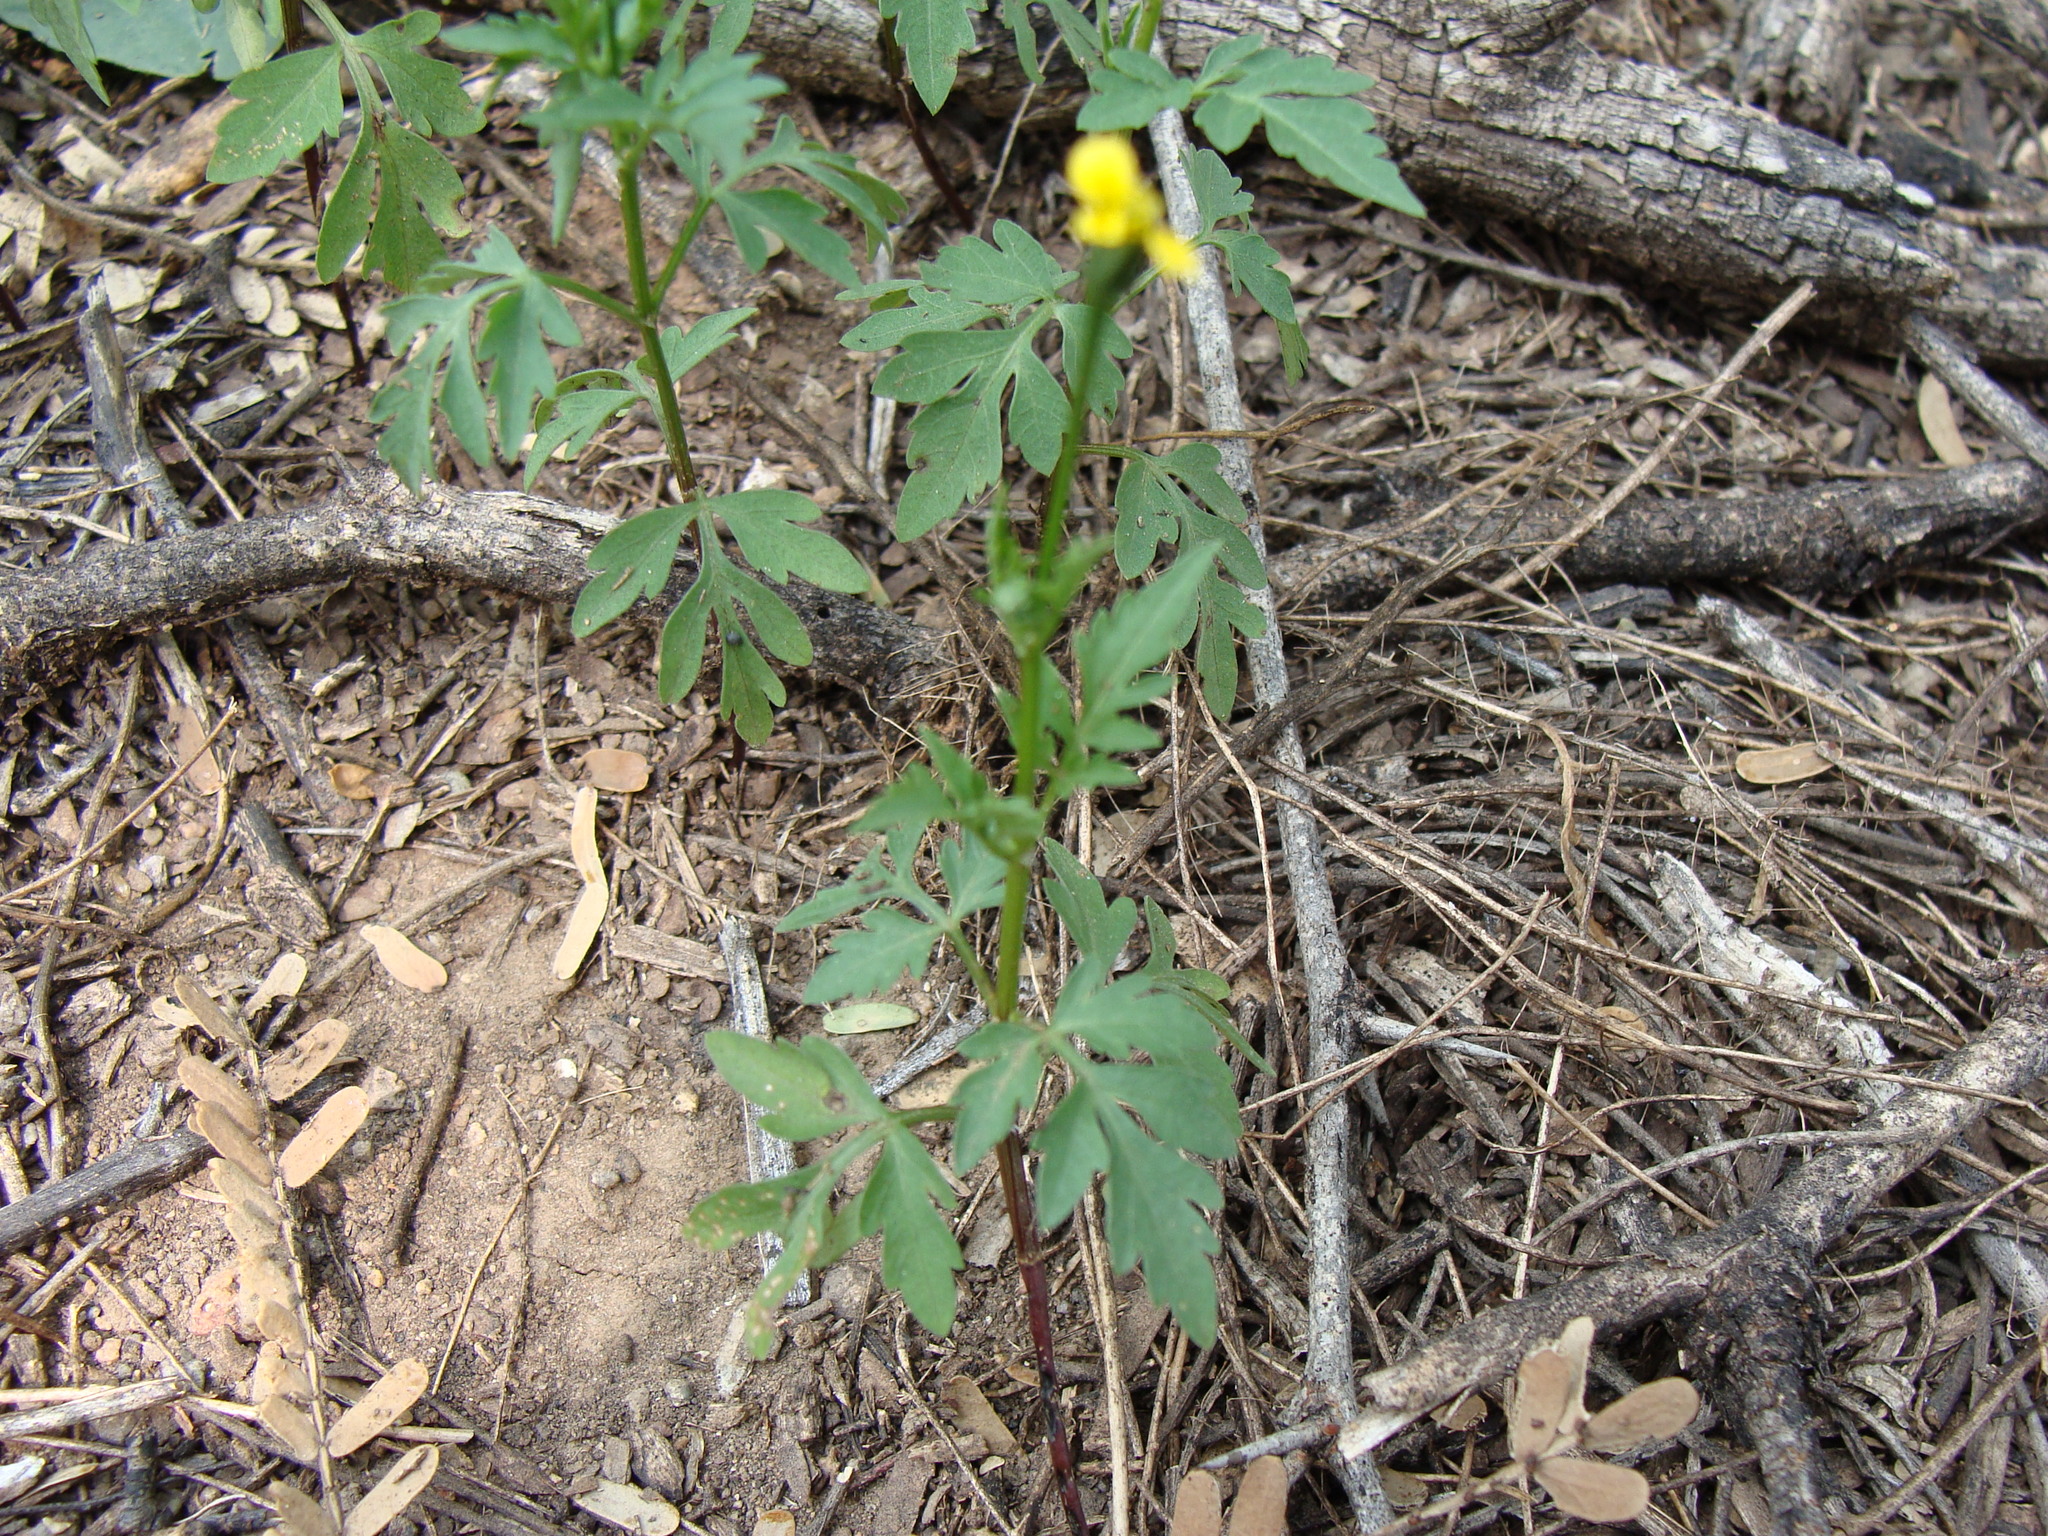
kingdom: Plantae
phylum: Tracheophyta
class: Magnoliopsida
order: Asterales
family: Asteraceae
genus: Bidens
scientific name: Bidens leptocephala
